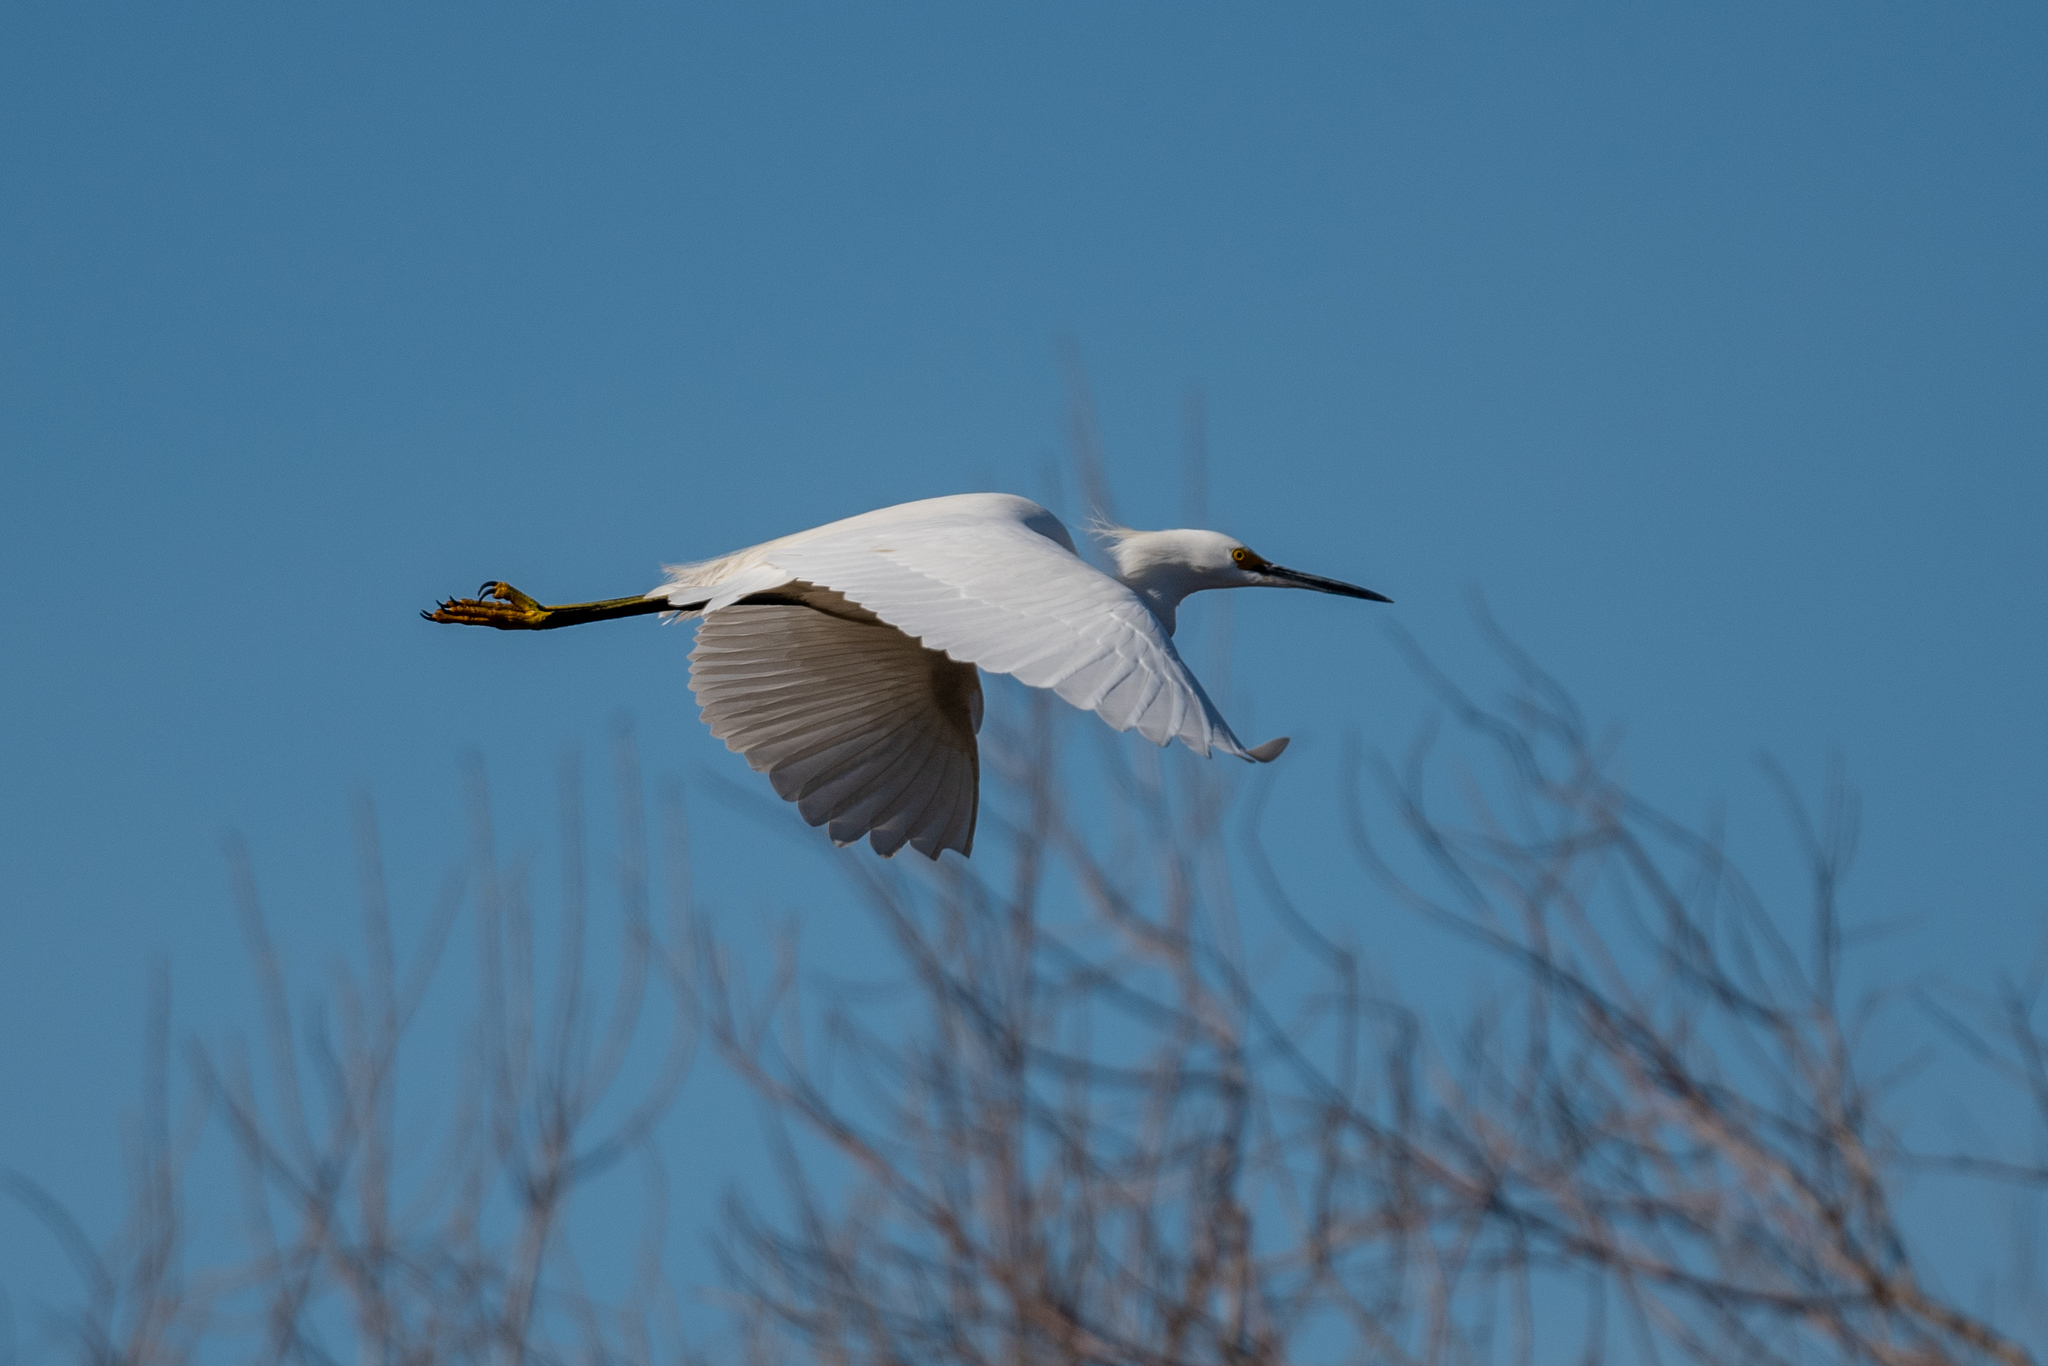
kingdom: Animalia
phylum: Chordata
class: Aves
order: Pelecaniformes
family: Ardeidae
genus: Egretta
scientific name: Egretta thula
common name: Snowy egret
